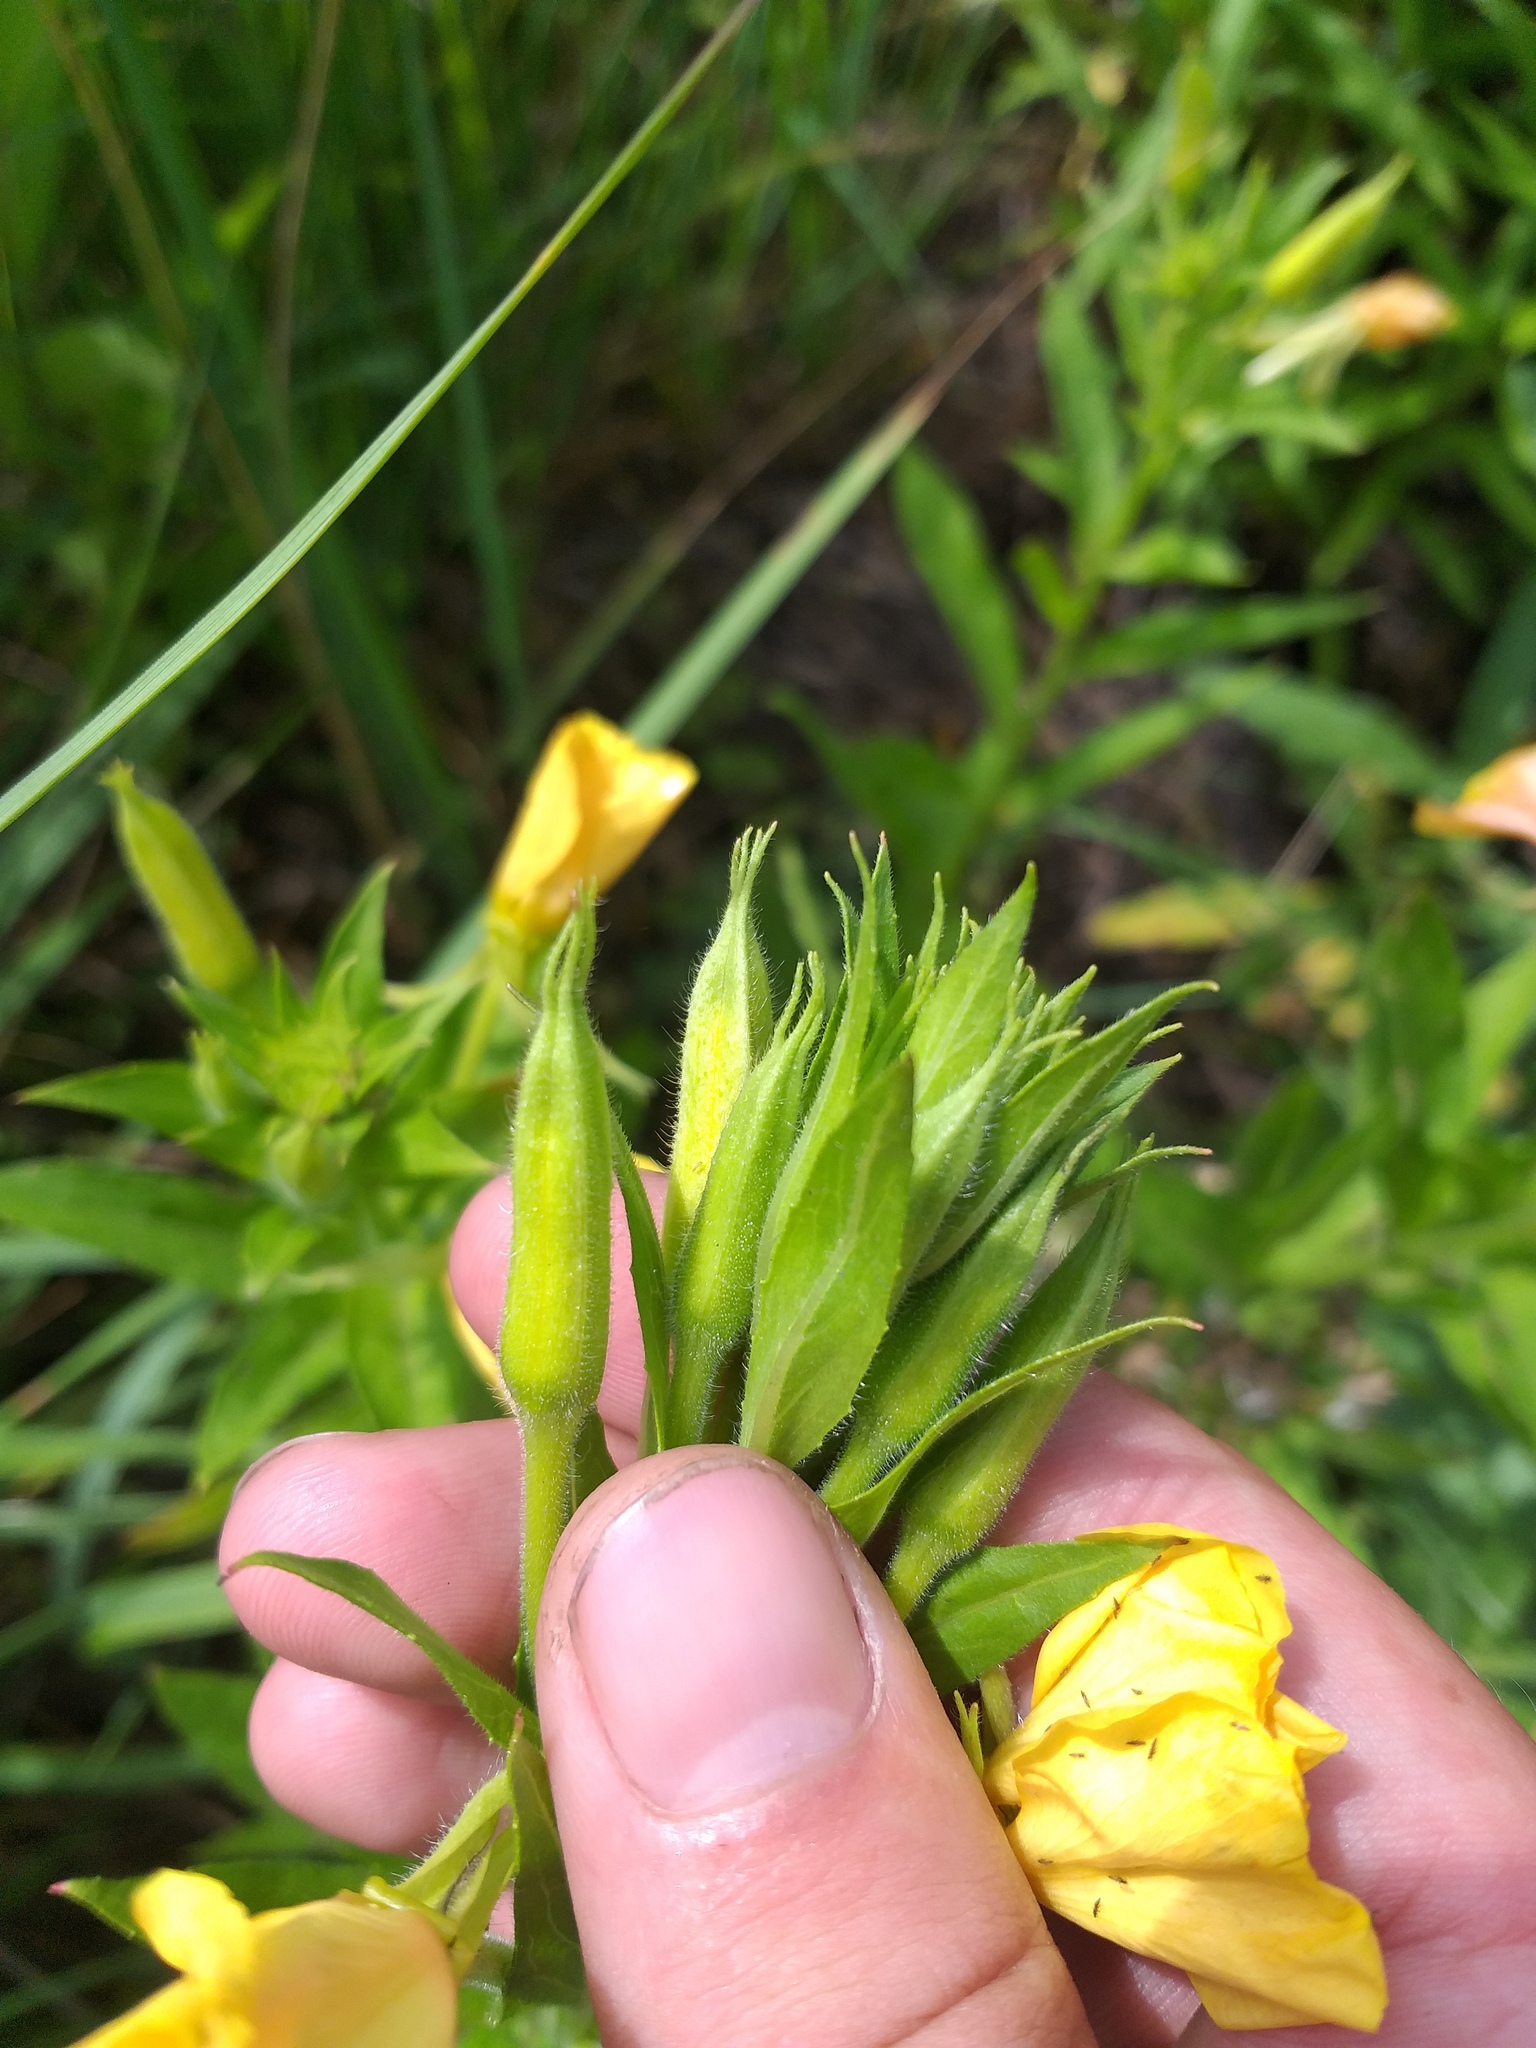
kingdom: Plantae
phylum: Tracheophyta
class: Magnoliopsida
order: Myrtales
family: Onagraceae
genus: Oenothera
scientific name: Oenothera biennis
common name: Common evening-primrose
